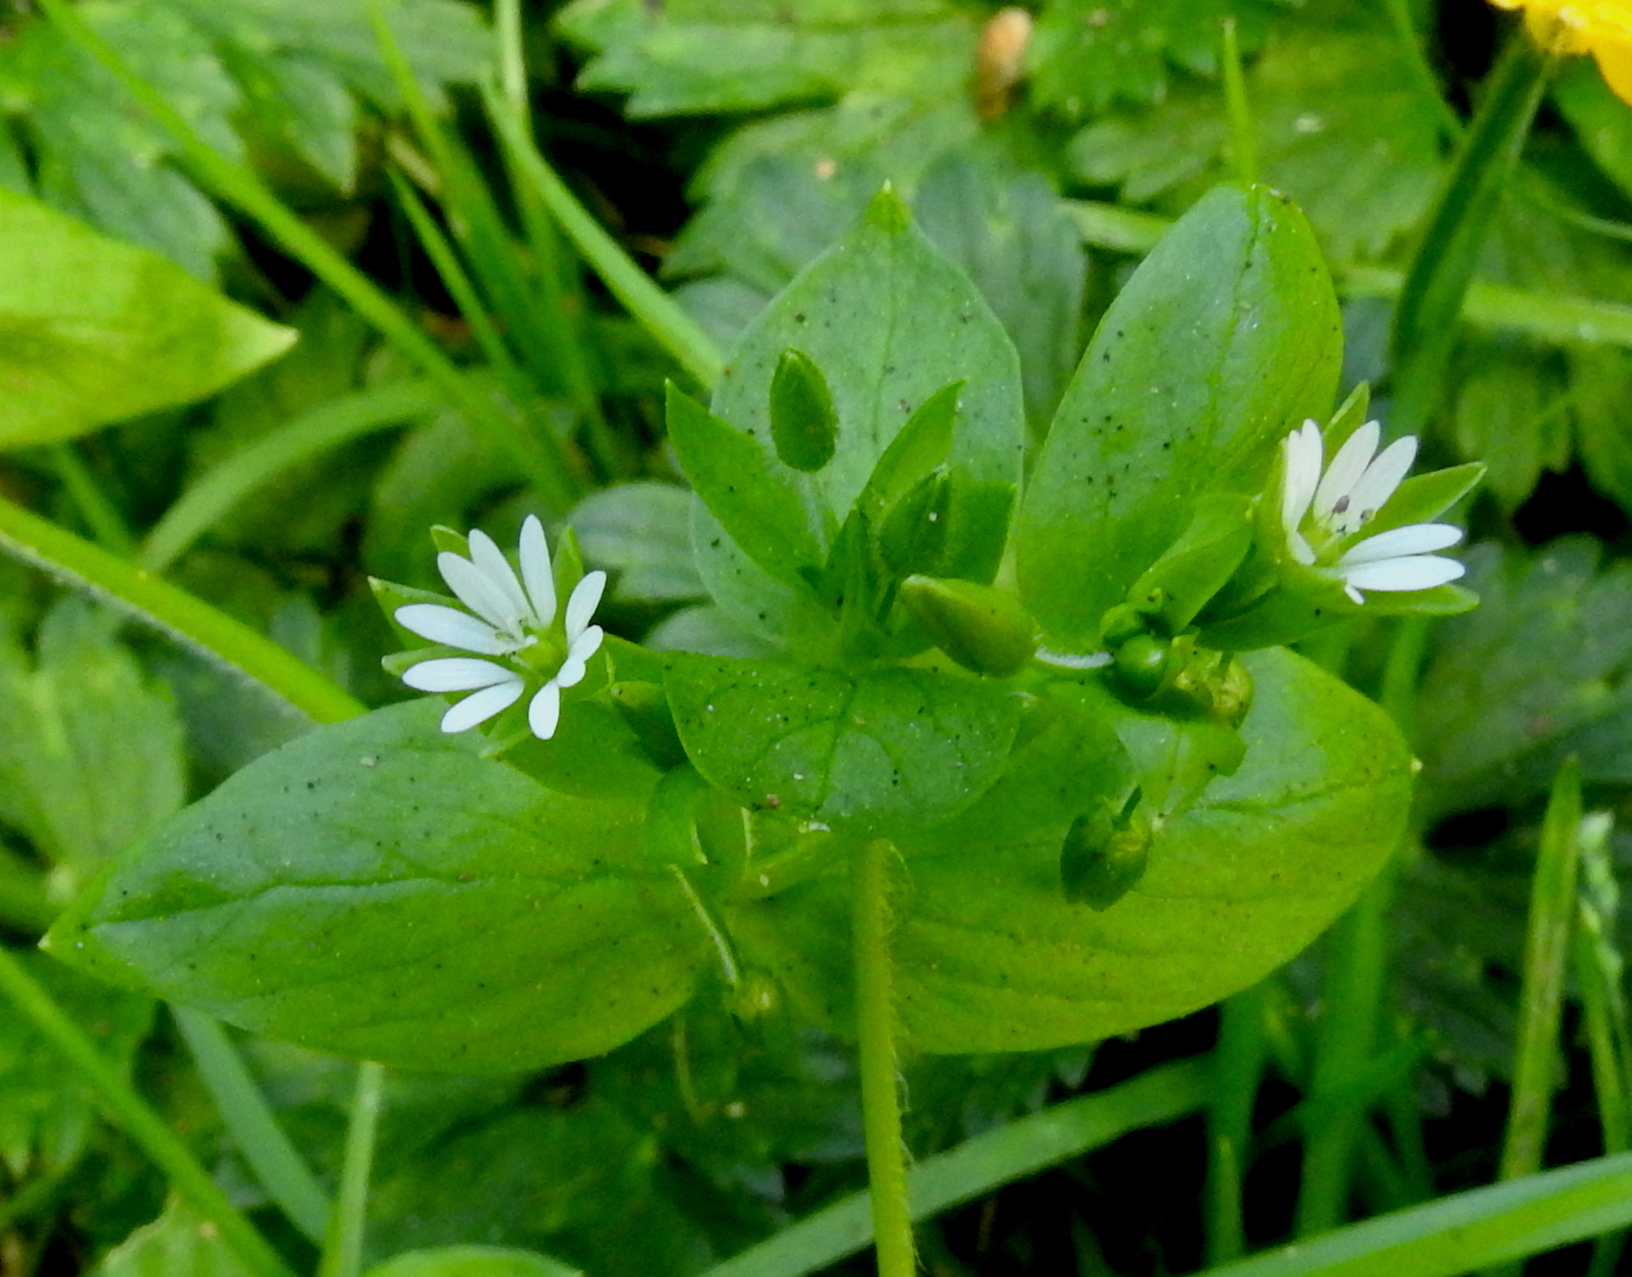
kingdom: Plantae
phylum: Tracheophyta
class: Magnoliopsida
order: Caryophyllales
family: Caryophyllaceae
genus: Stellaria
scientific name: Stellaria media
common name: Common chickweed
